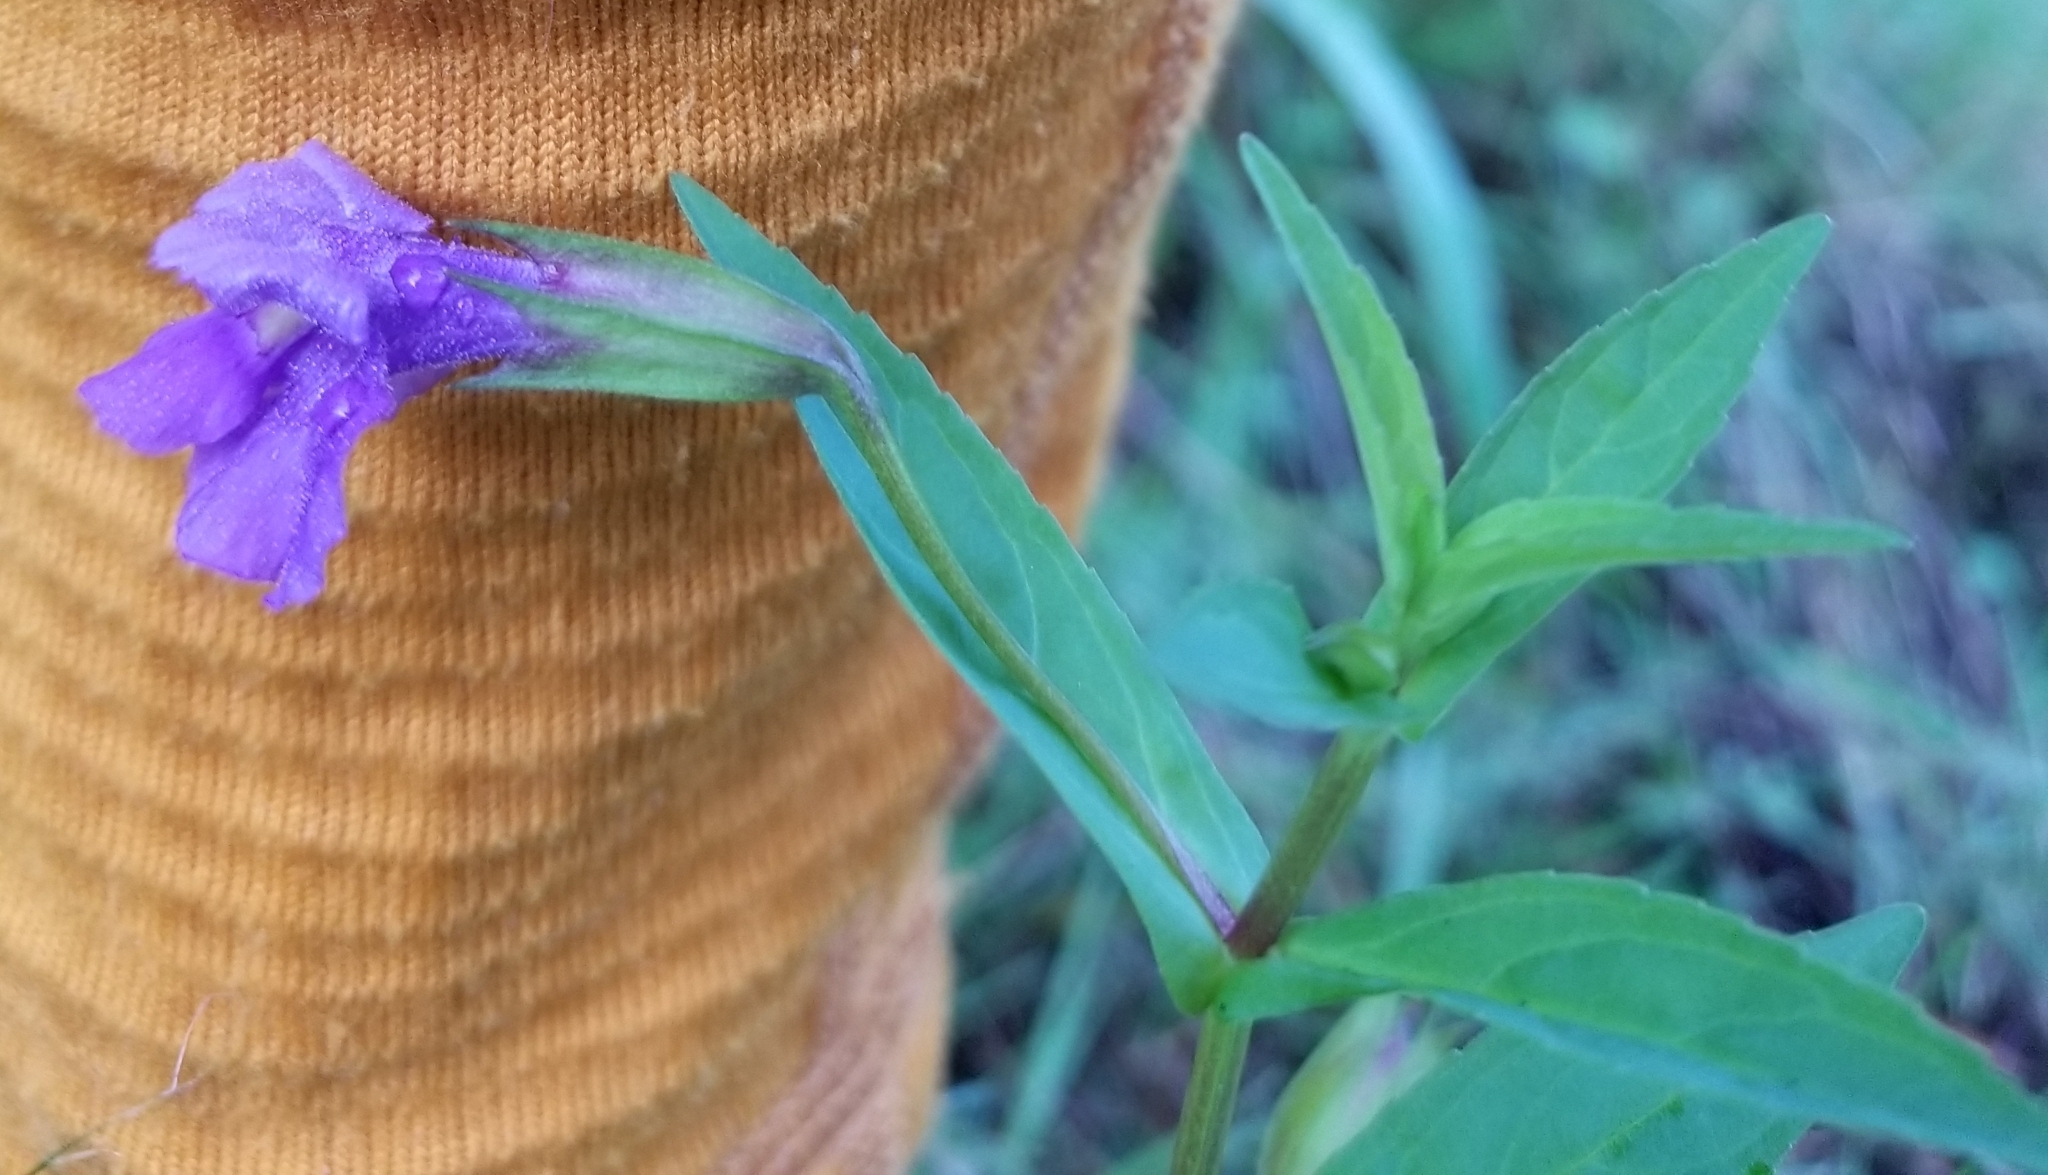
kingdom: Plantae
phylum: Tracheophyta
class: Magnoliopsida
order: Lamiales
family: Phrymaceae
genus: Mimulus
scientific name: Mimulus ringens
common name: Allegheny monkeyflower
